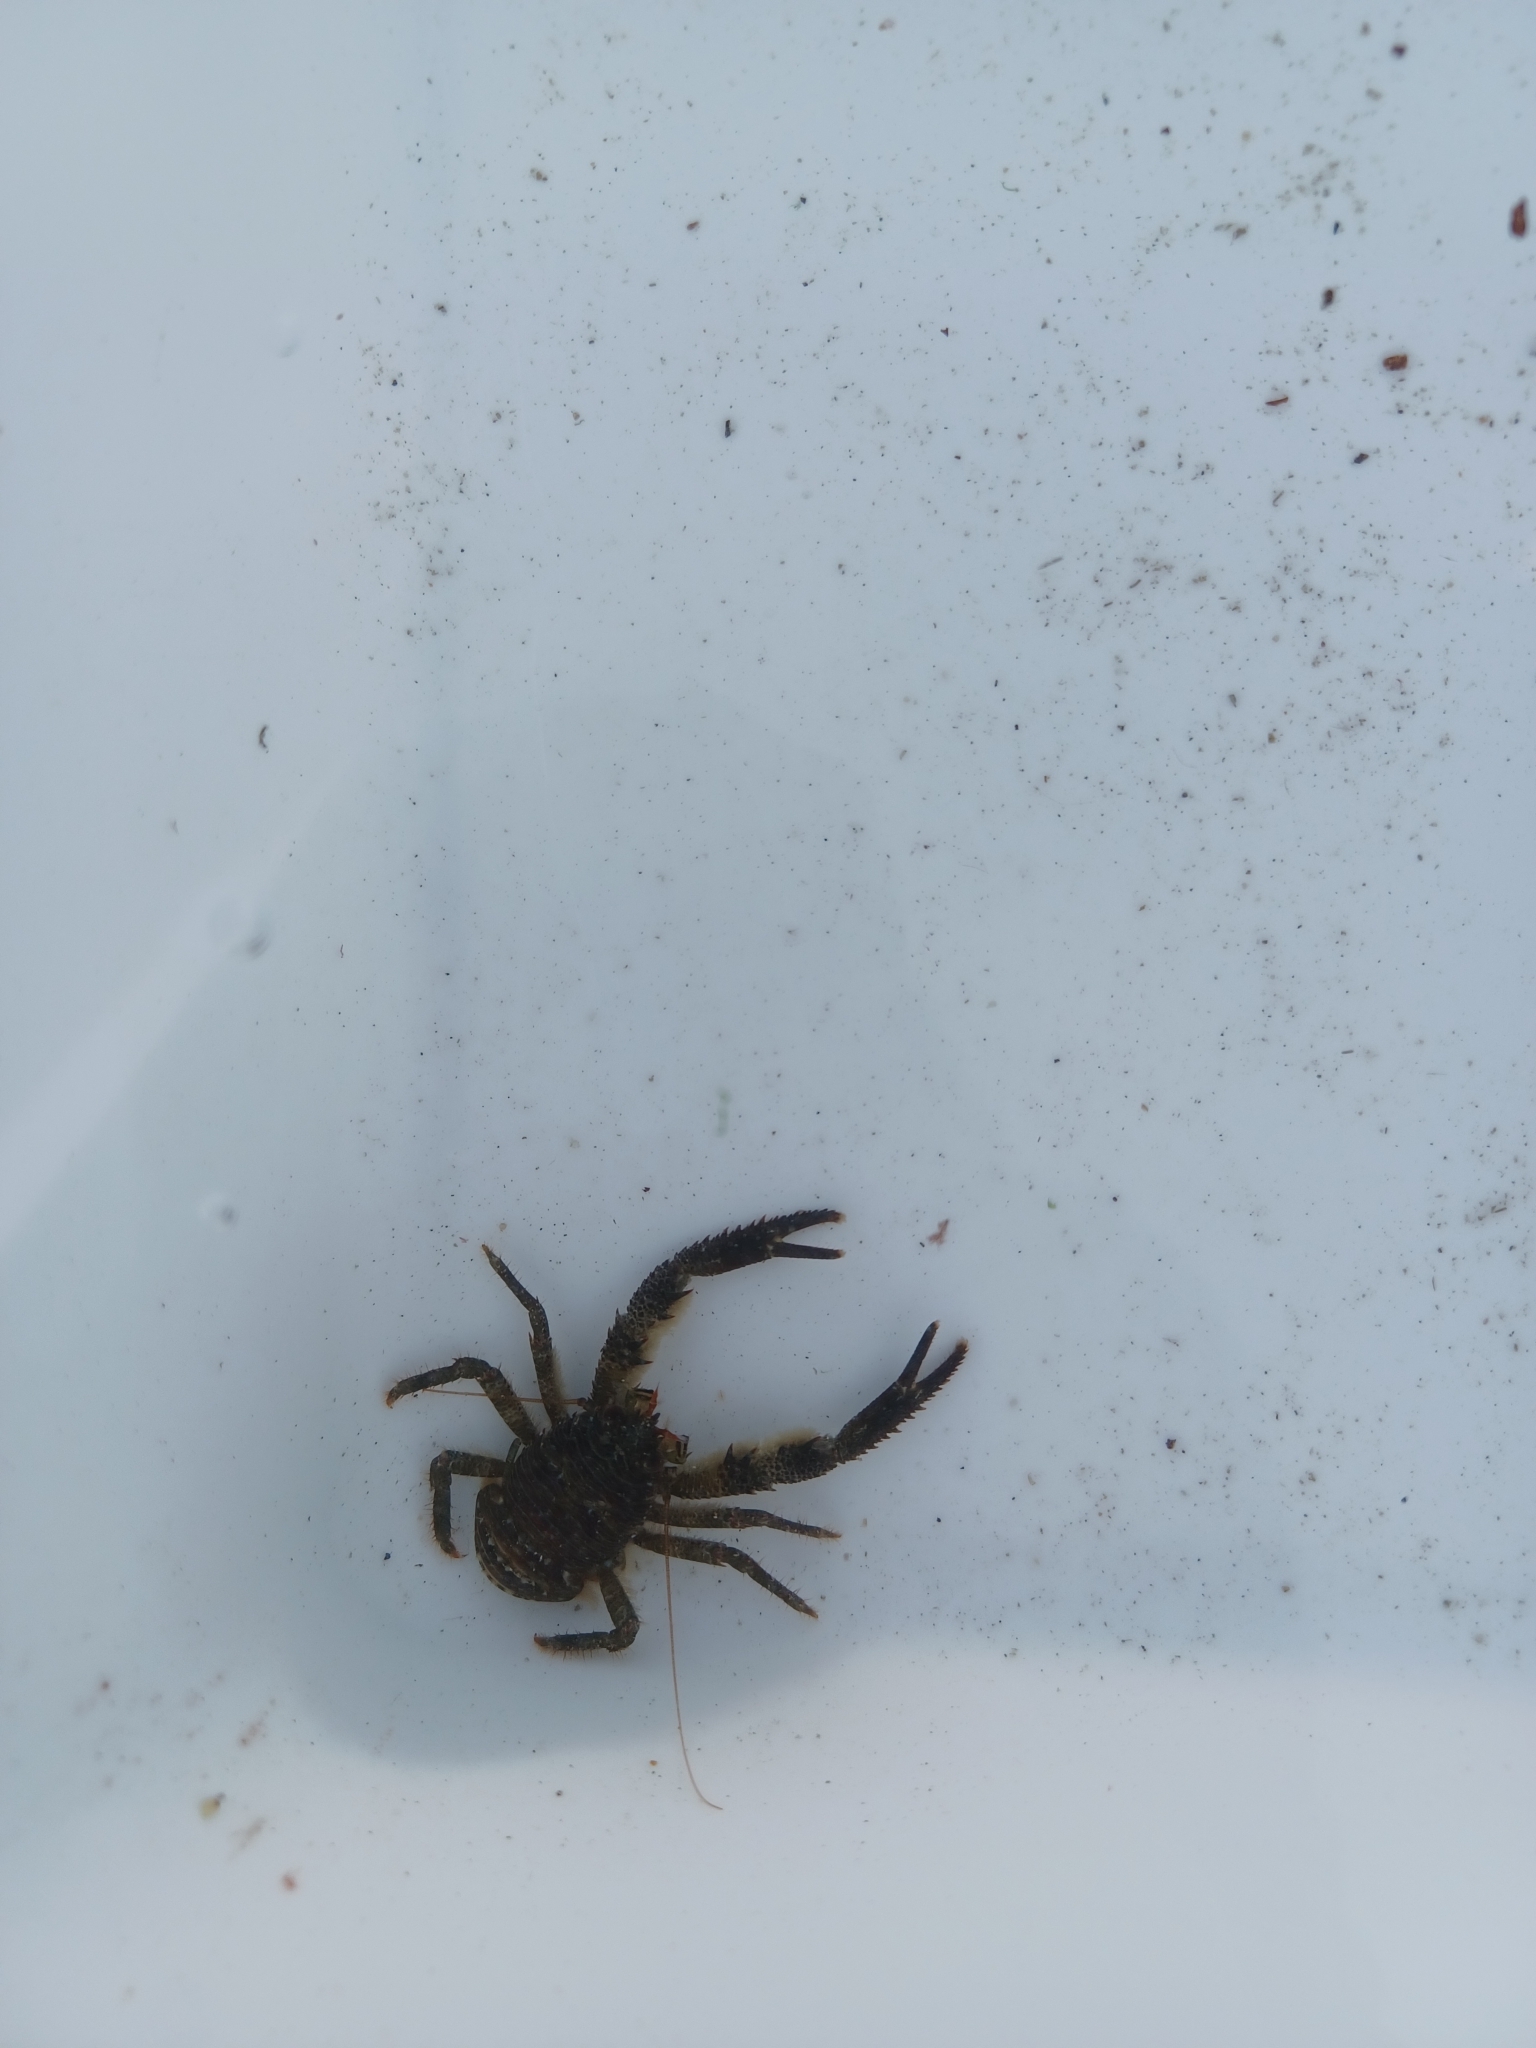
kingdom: Animalia
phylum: Arthropoda
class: Malacostraca
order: Decapoda
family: Galatheidae
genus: Galathea
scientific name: Galathea squamifera
